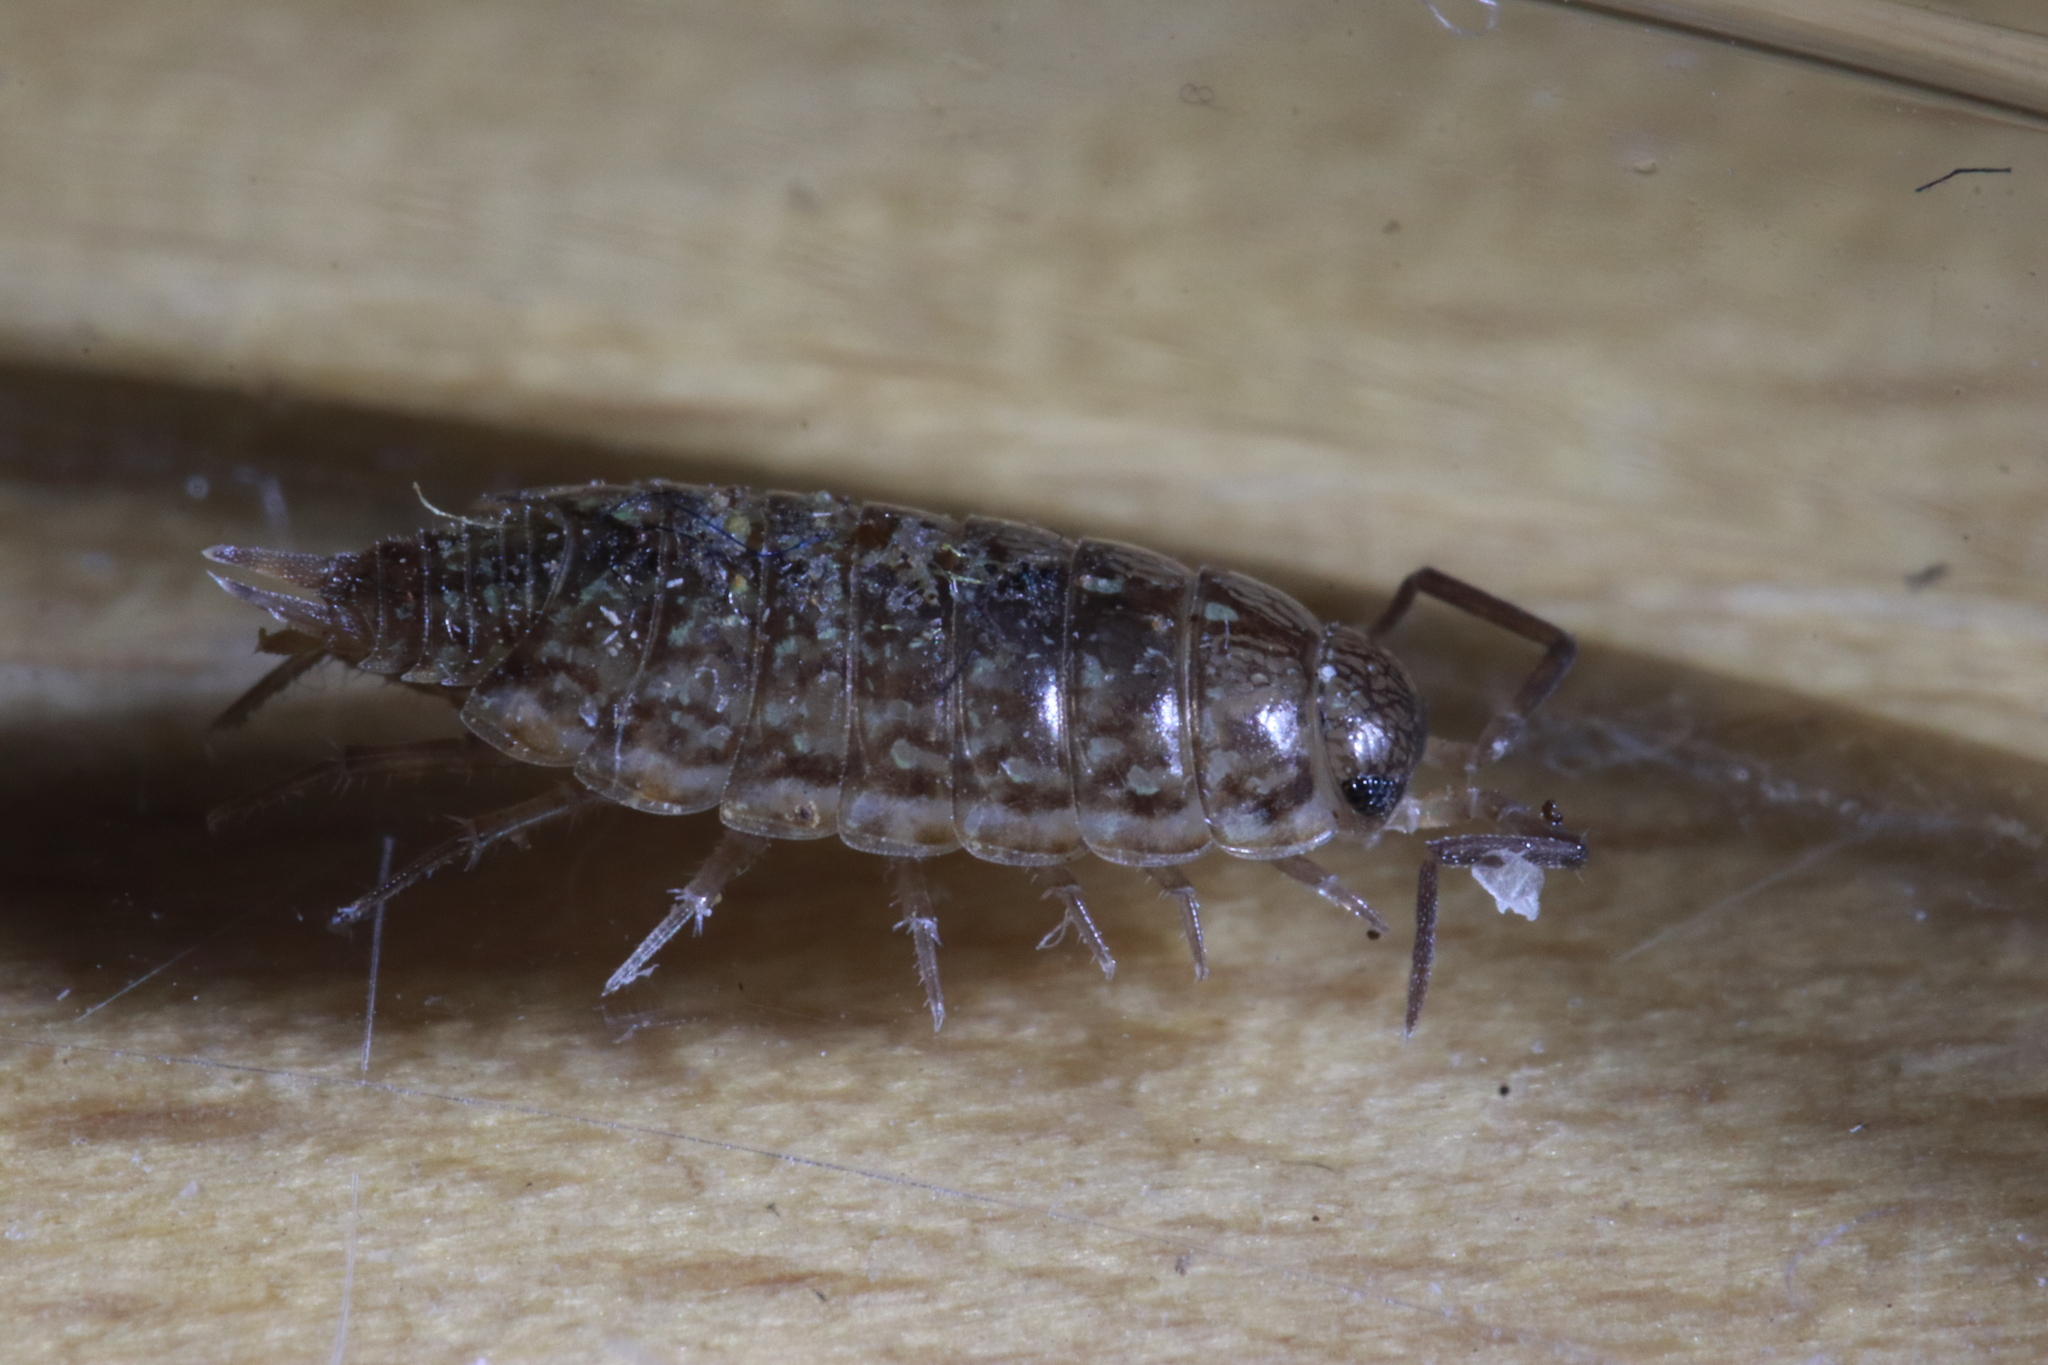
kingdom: Animalia
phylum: Arthropoda
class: Malacostraca
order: Isopoda
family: Philosciidae
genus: Philoscia
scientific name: Philoscia affinis
